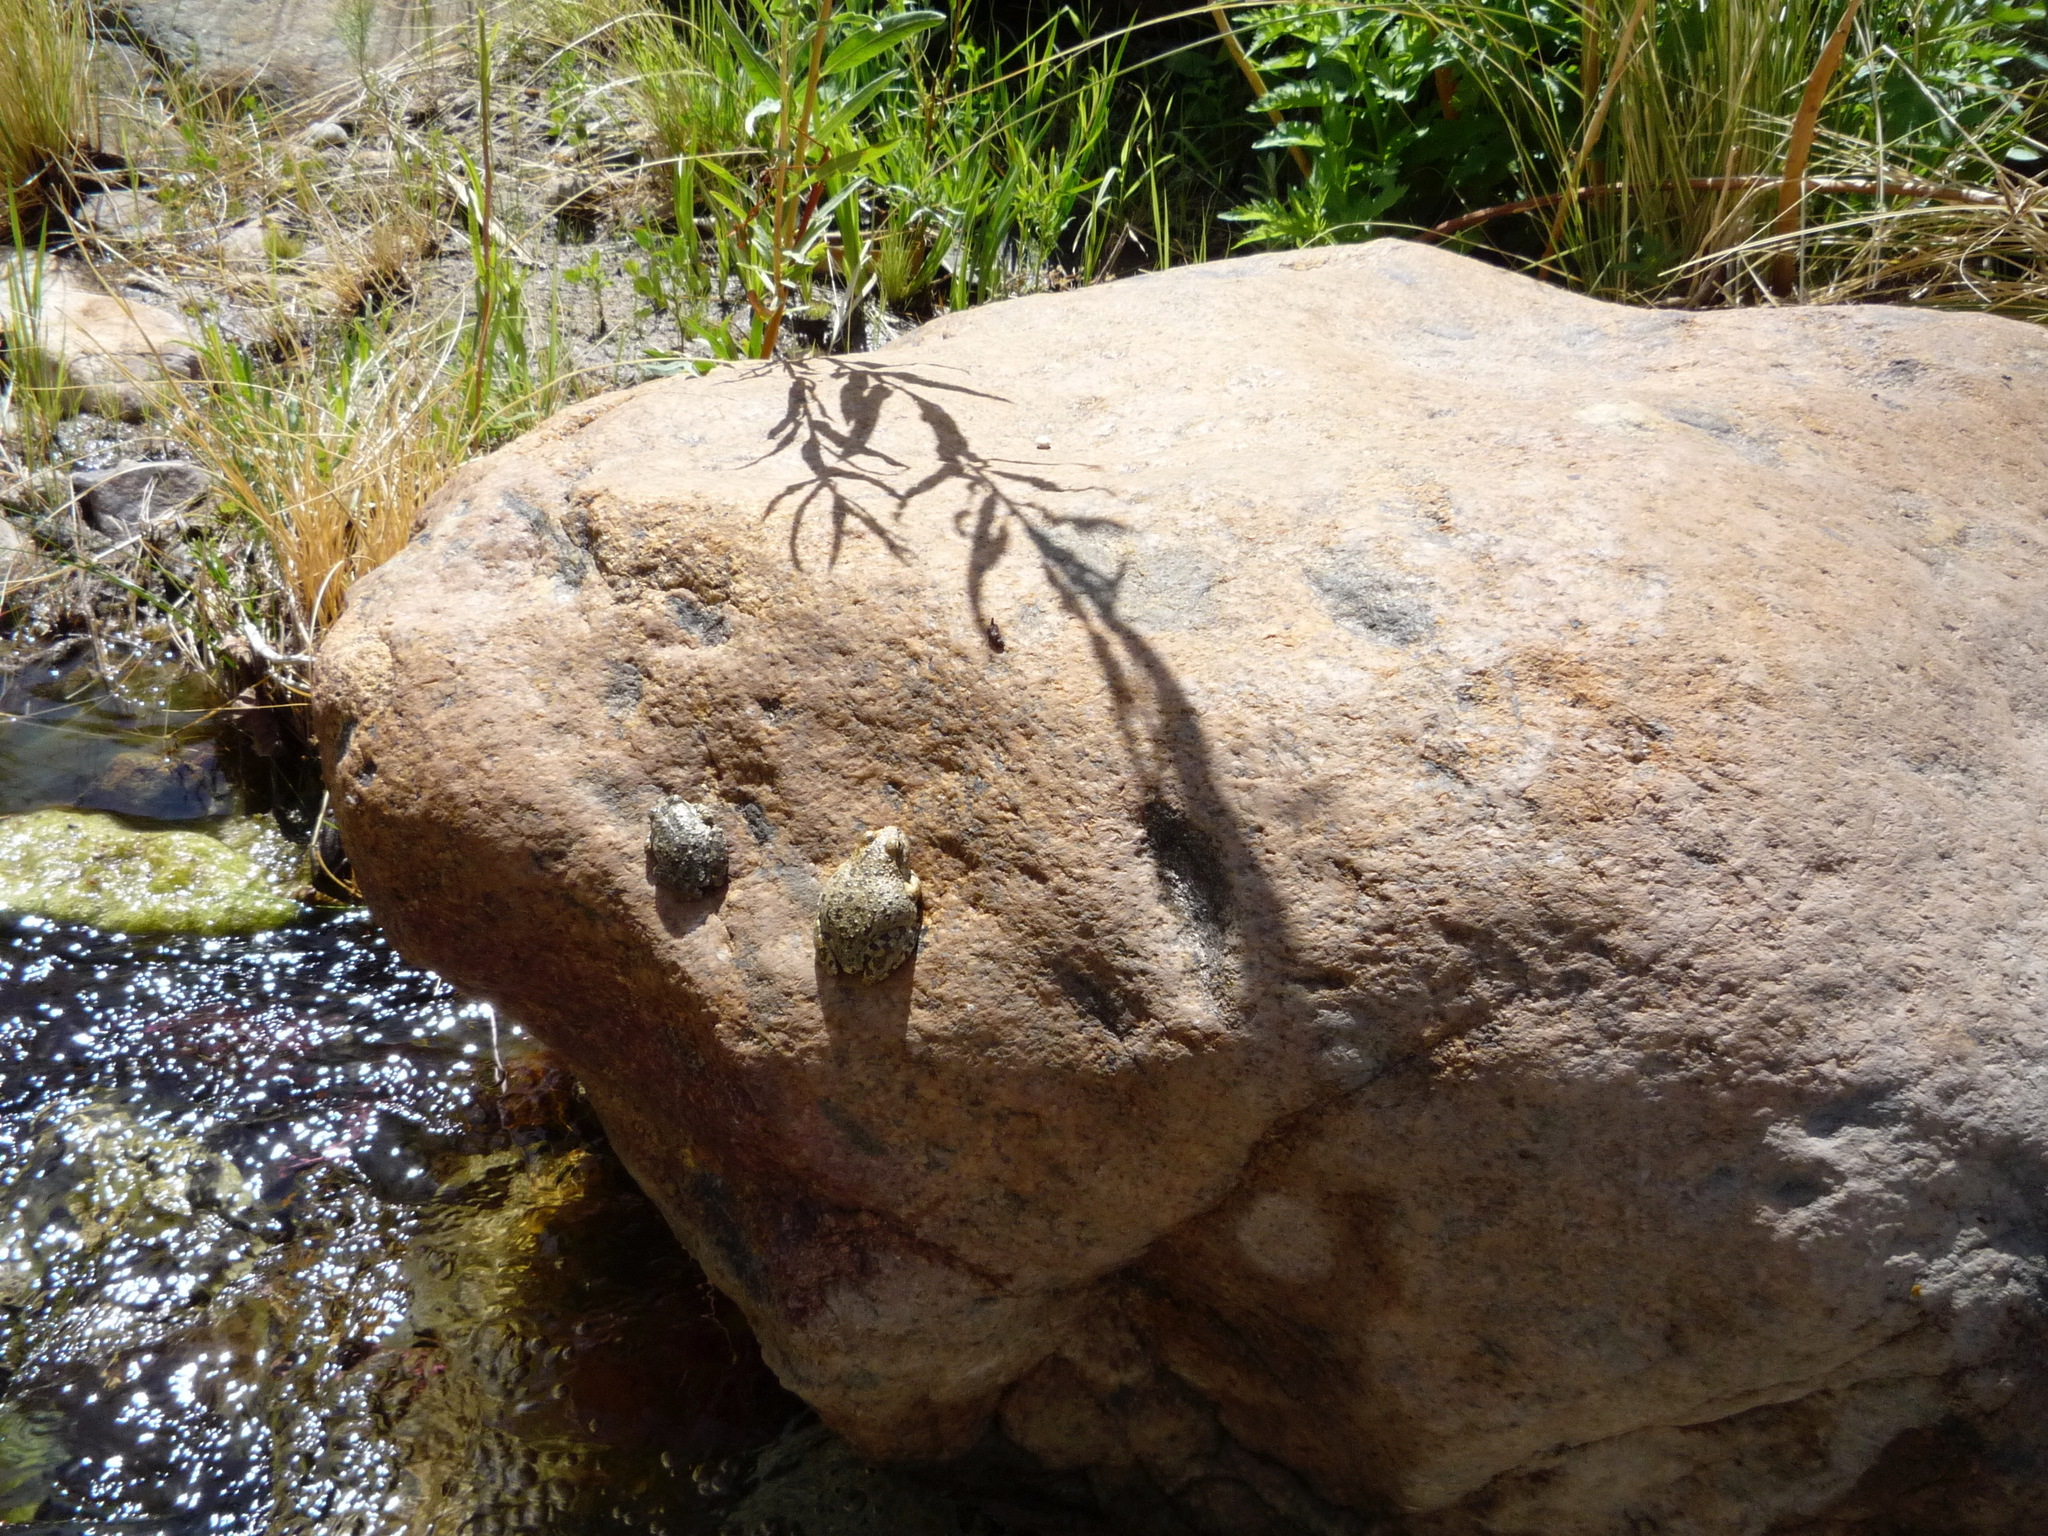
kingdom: Animalia
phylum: Chordata
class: Amphibia
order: Anura
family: Hylidae
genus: Pseudacris
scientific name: Pseudacris cadaverina
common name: California chorus frog
